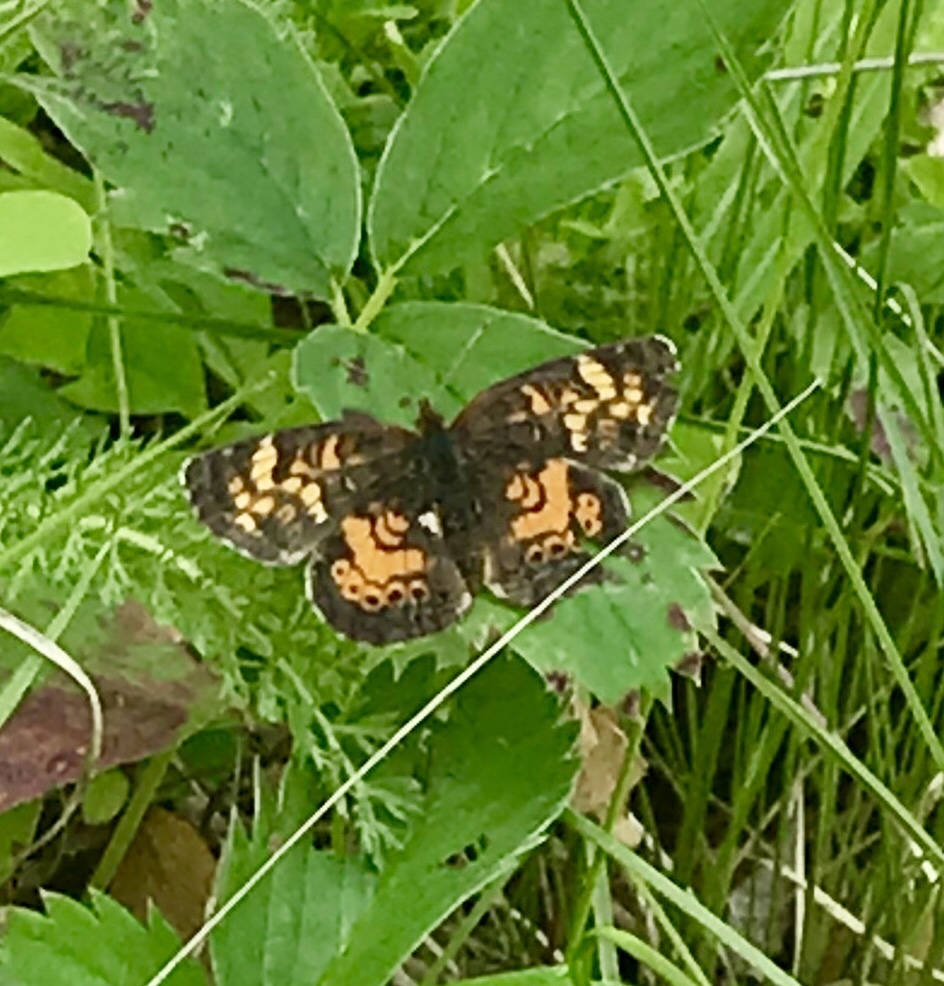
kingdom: Animalia
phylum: Arthropoda
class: Insecta
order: Lepidoptera
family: Nymphalidae
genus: Phyciodes
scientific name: Phyciodes tharos
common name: Pearl crescent
